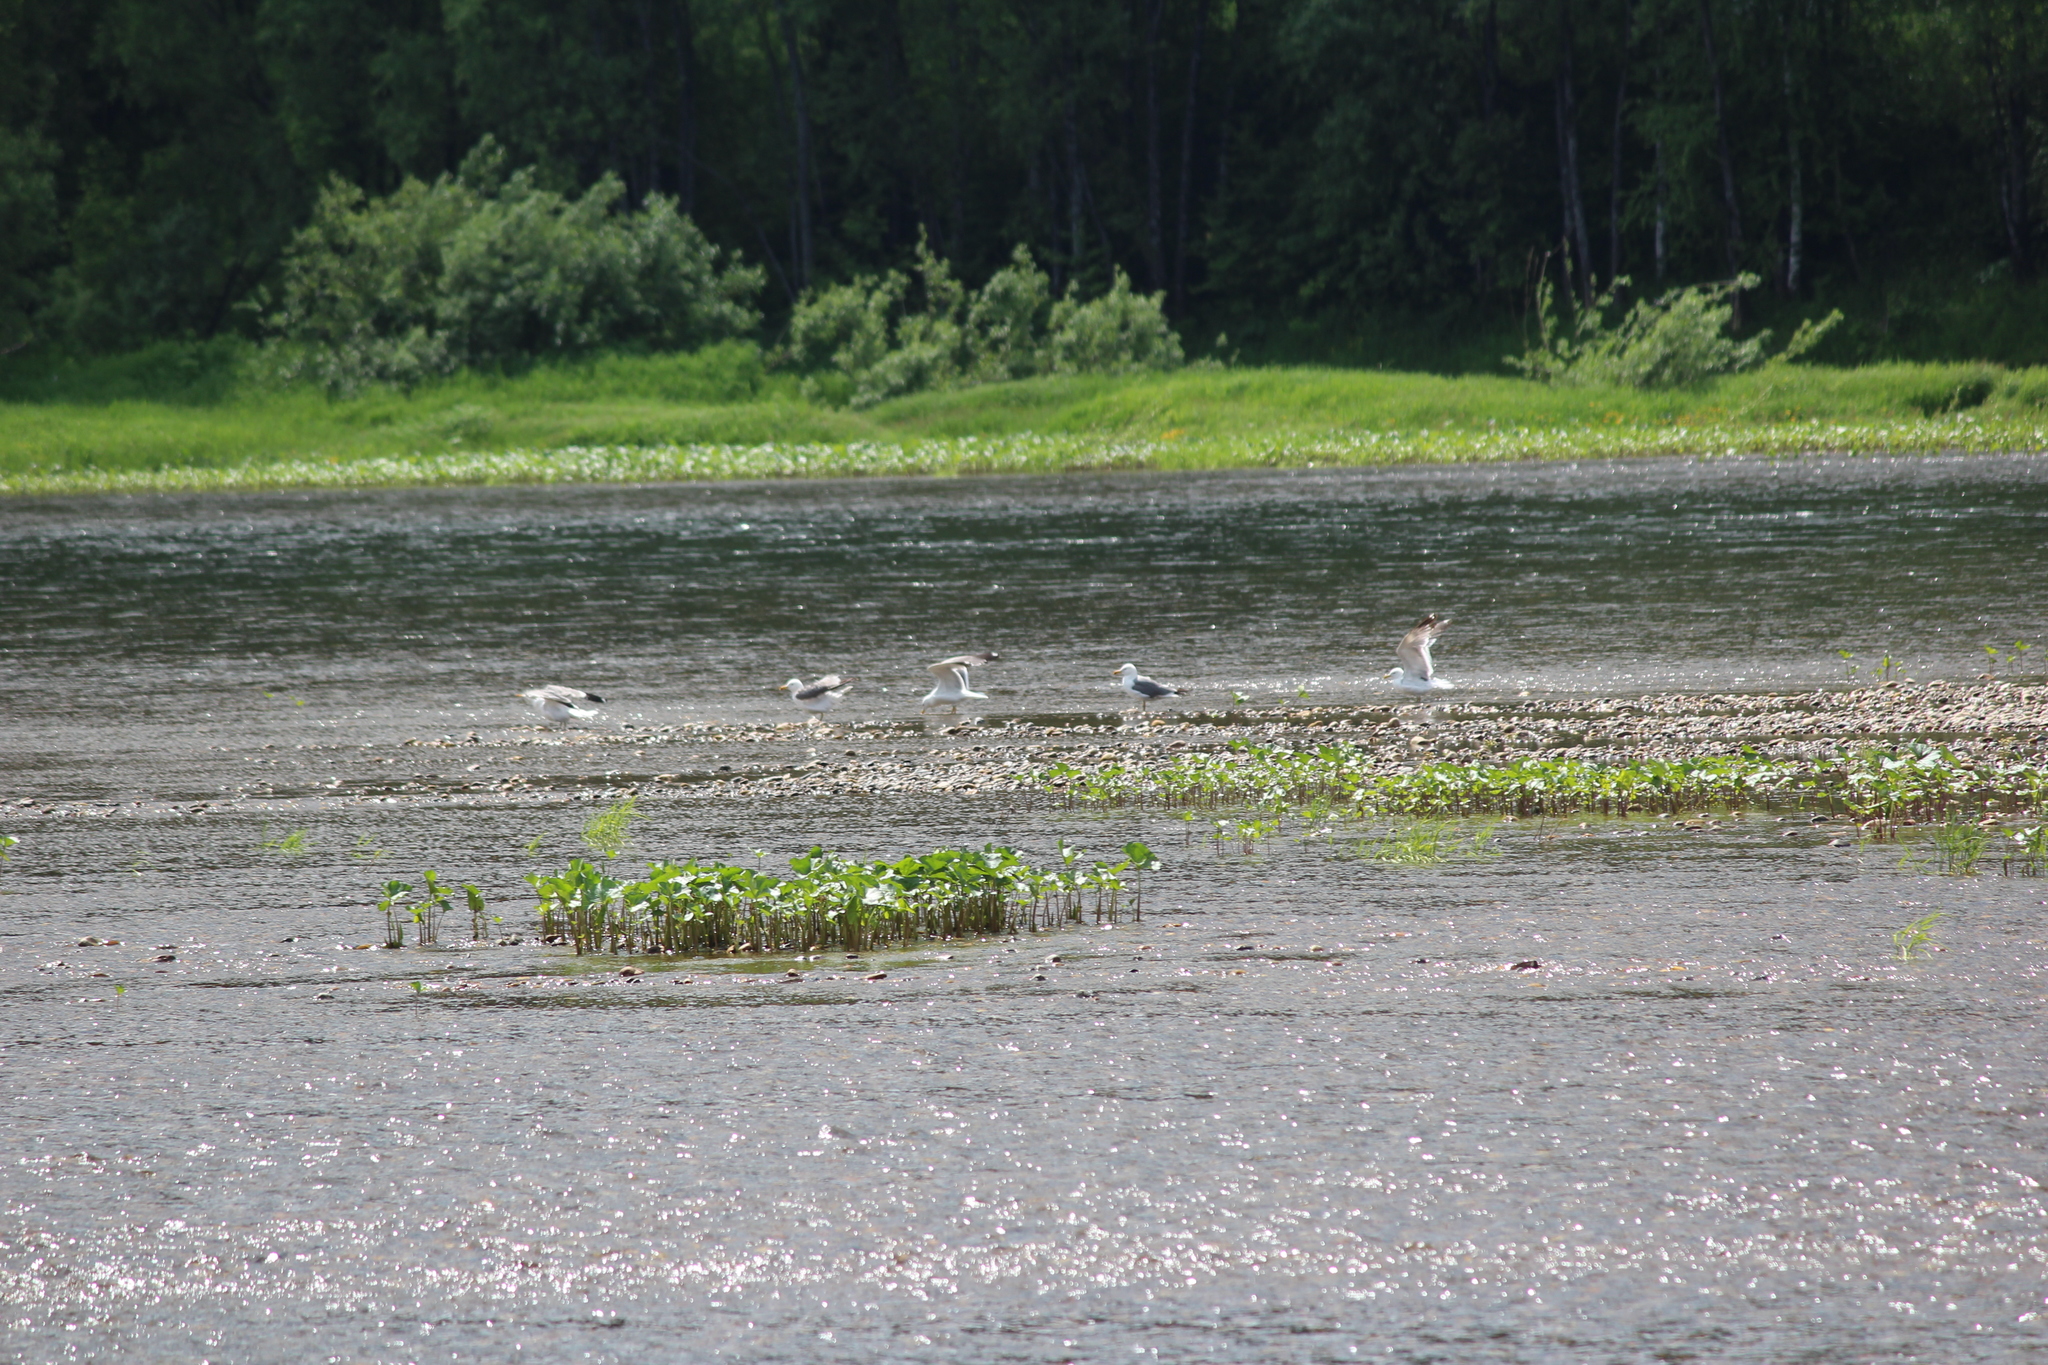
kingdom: Animalia
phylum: Chordata
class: Aves
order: Charadriiformes
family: Laridae
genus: Larus
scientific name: Larus fuscus
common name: Lesser black-backed gull
